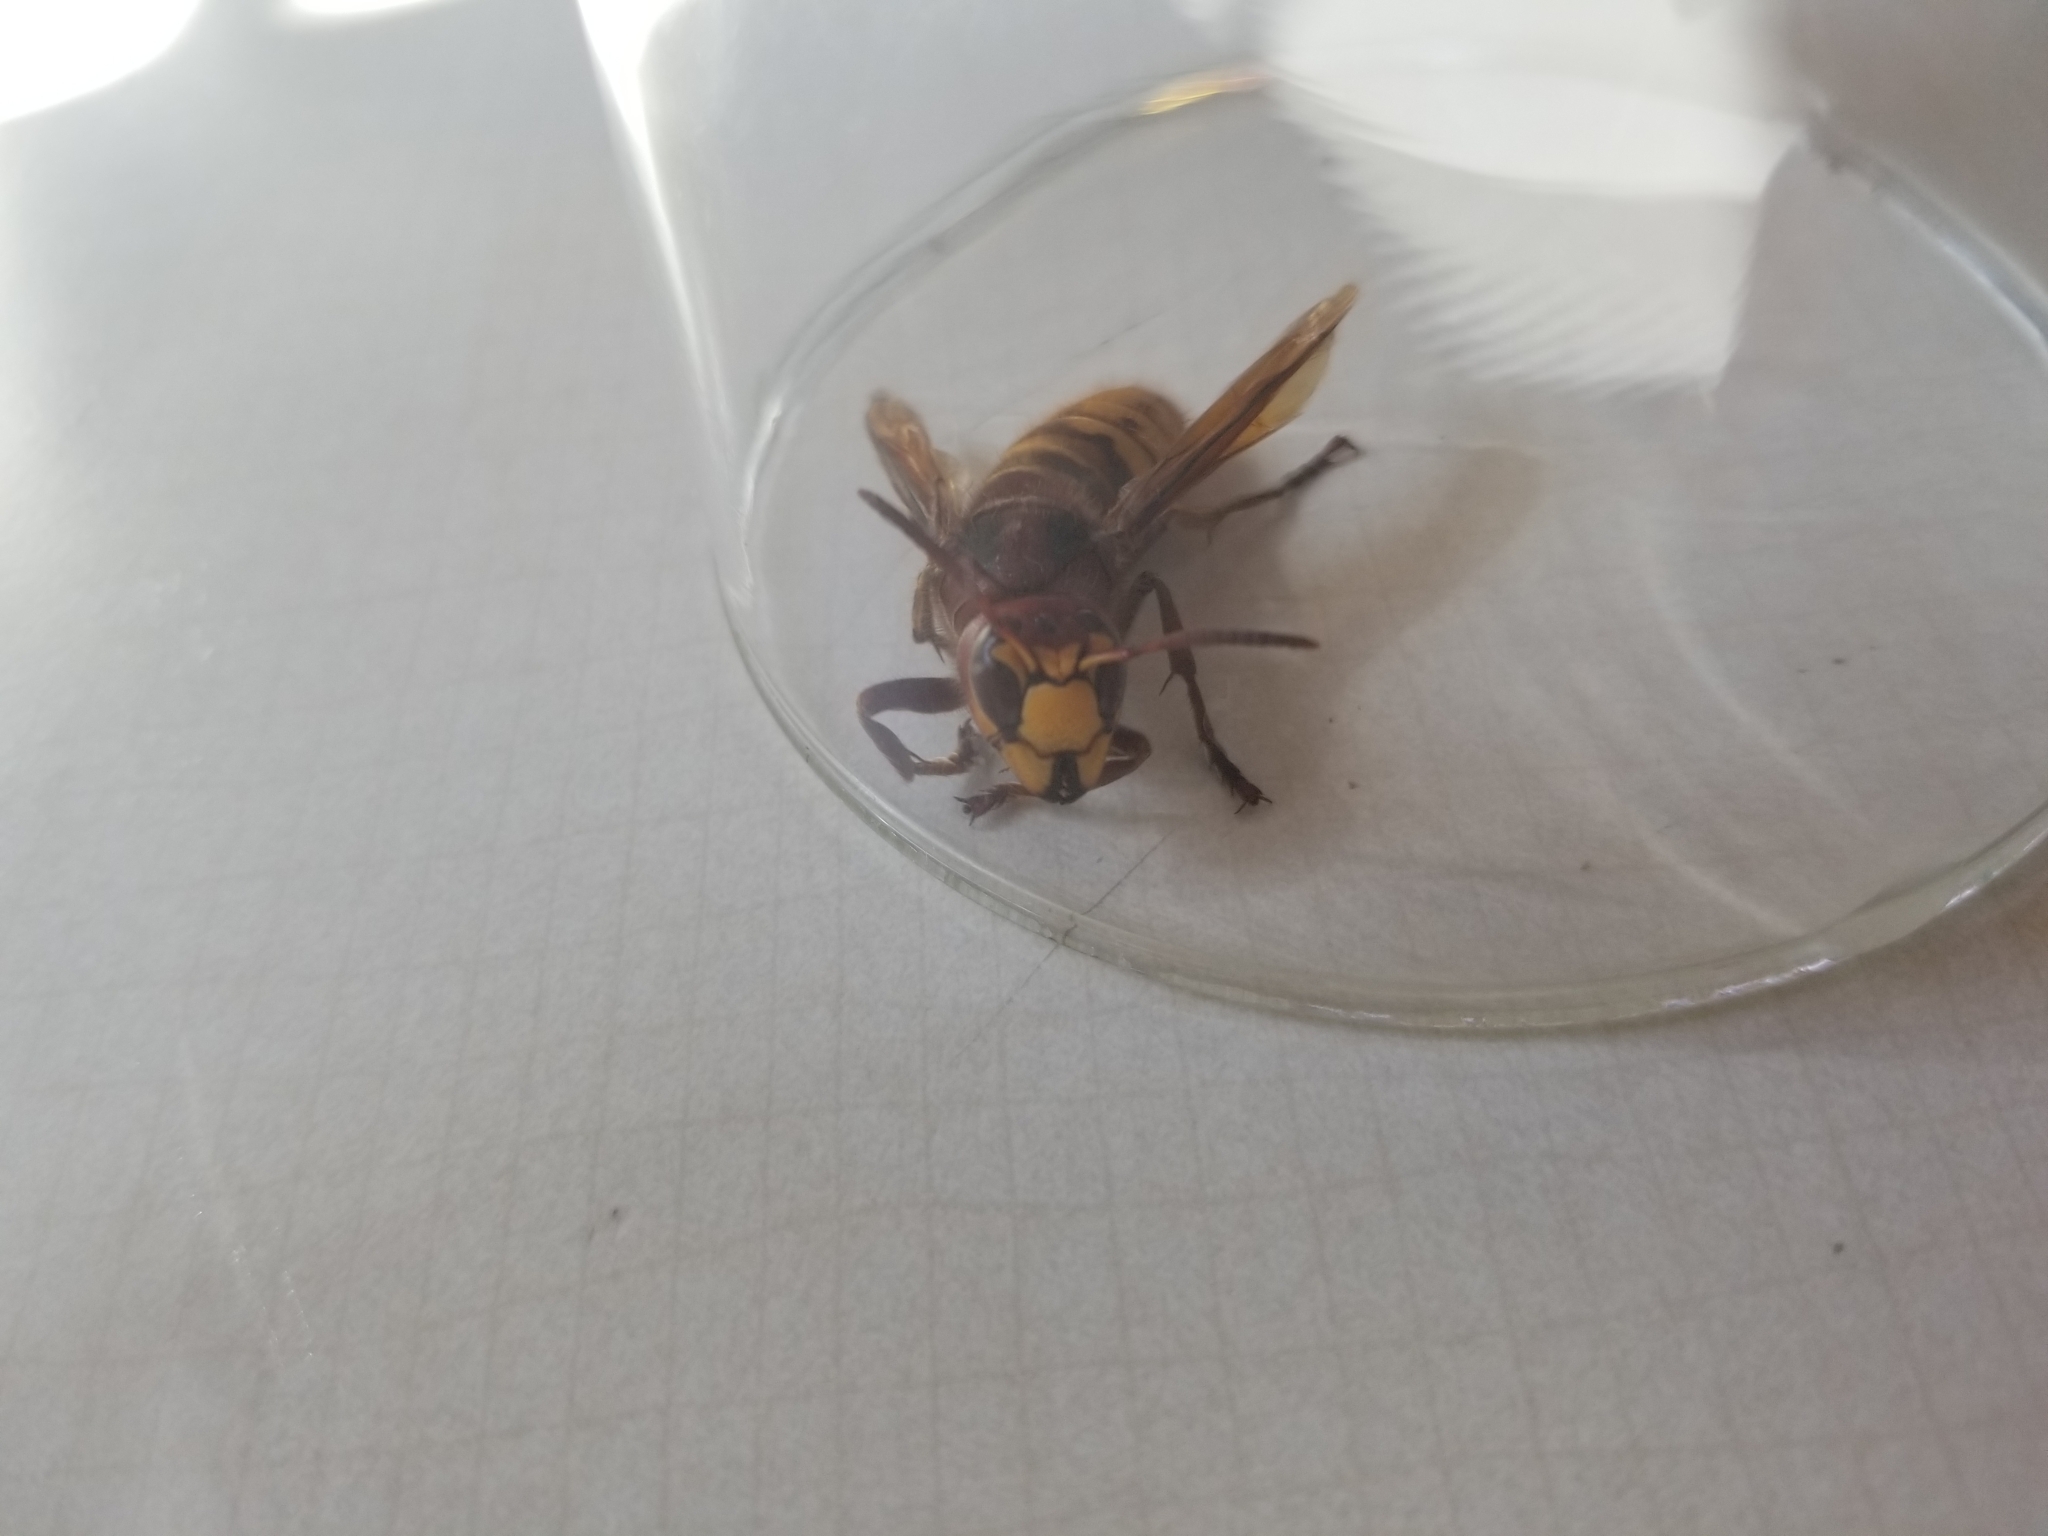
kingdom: Animalia
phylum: Arthropoda
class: Insecta
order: Hymenoptera
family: Vespidae
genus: Vespa
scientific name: Vespa crabro
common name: Hornet
